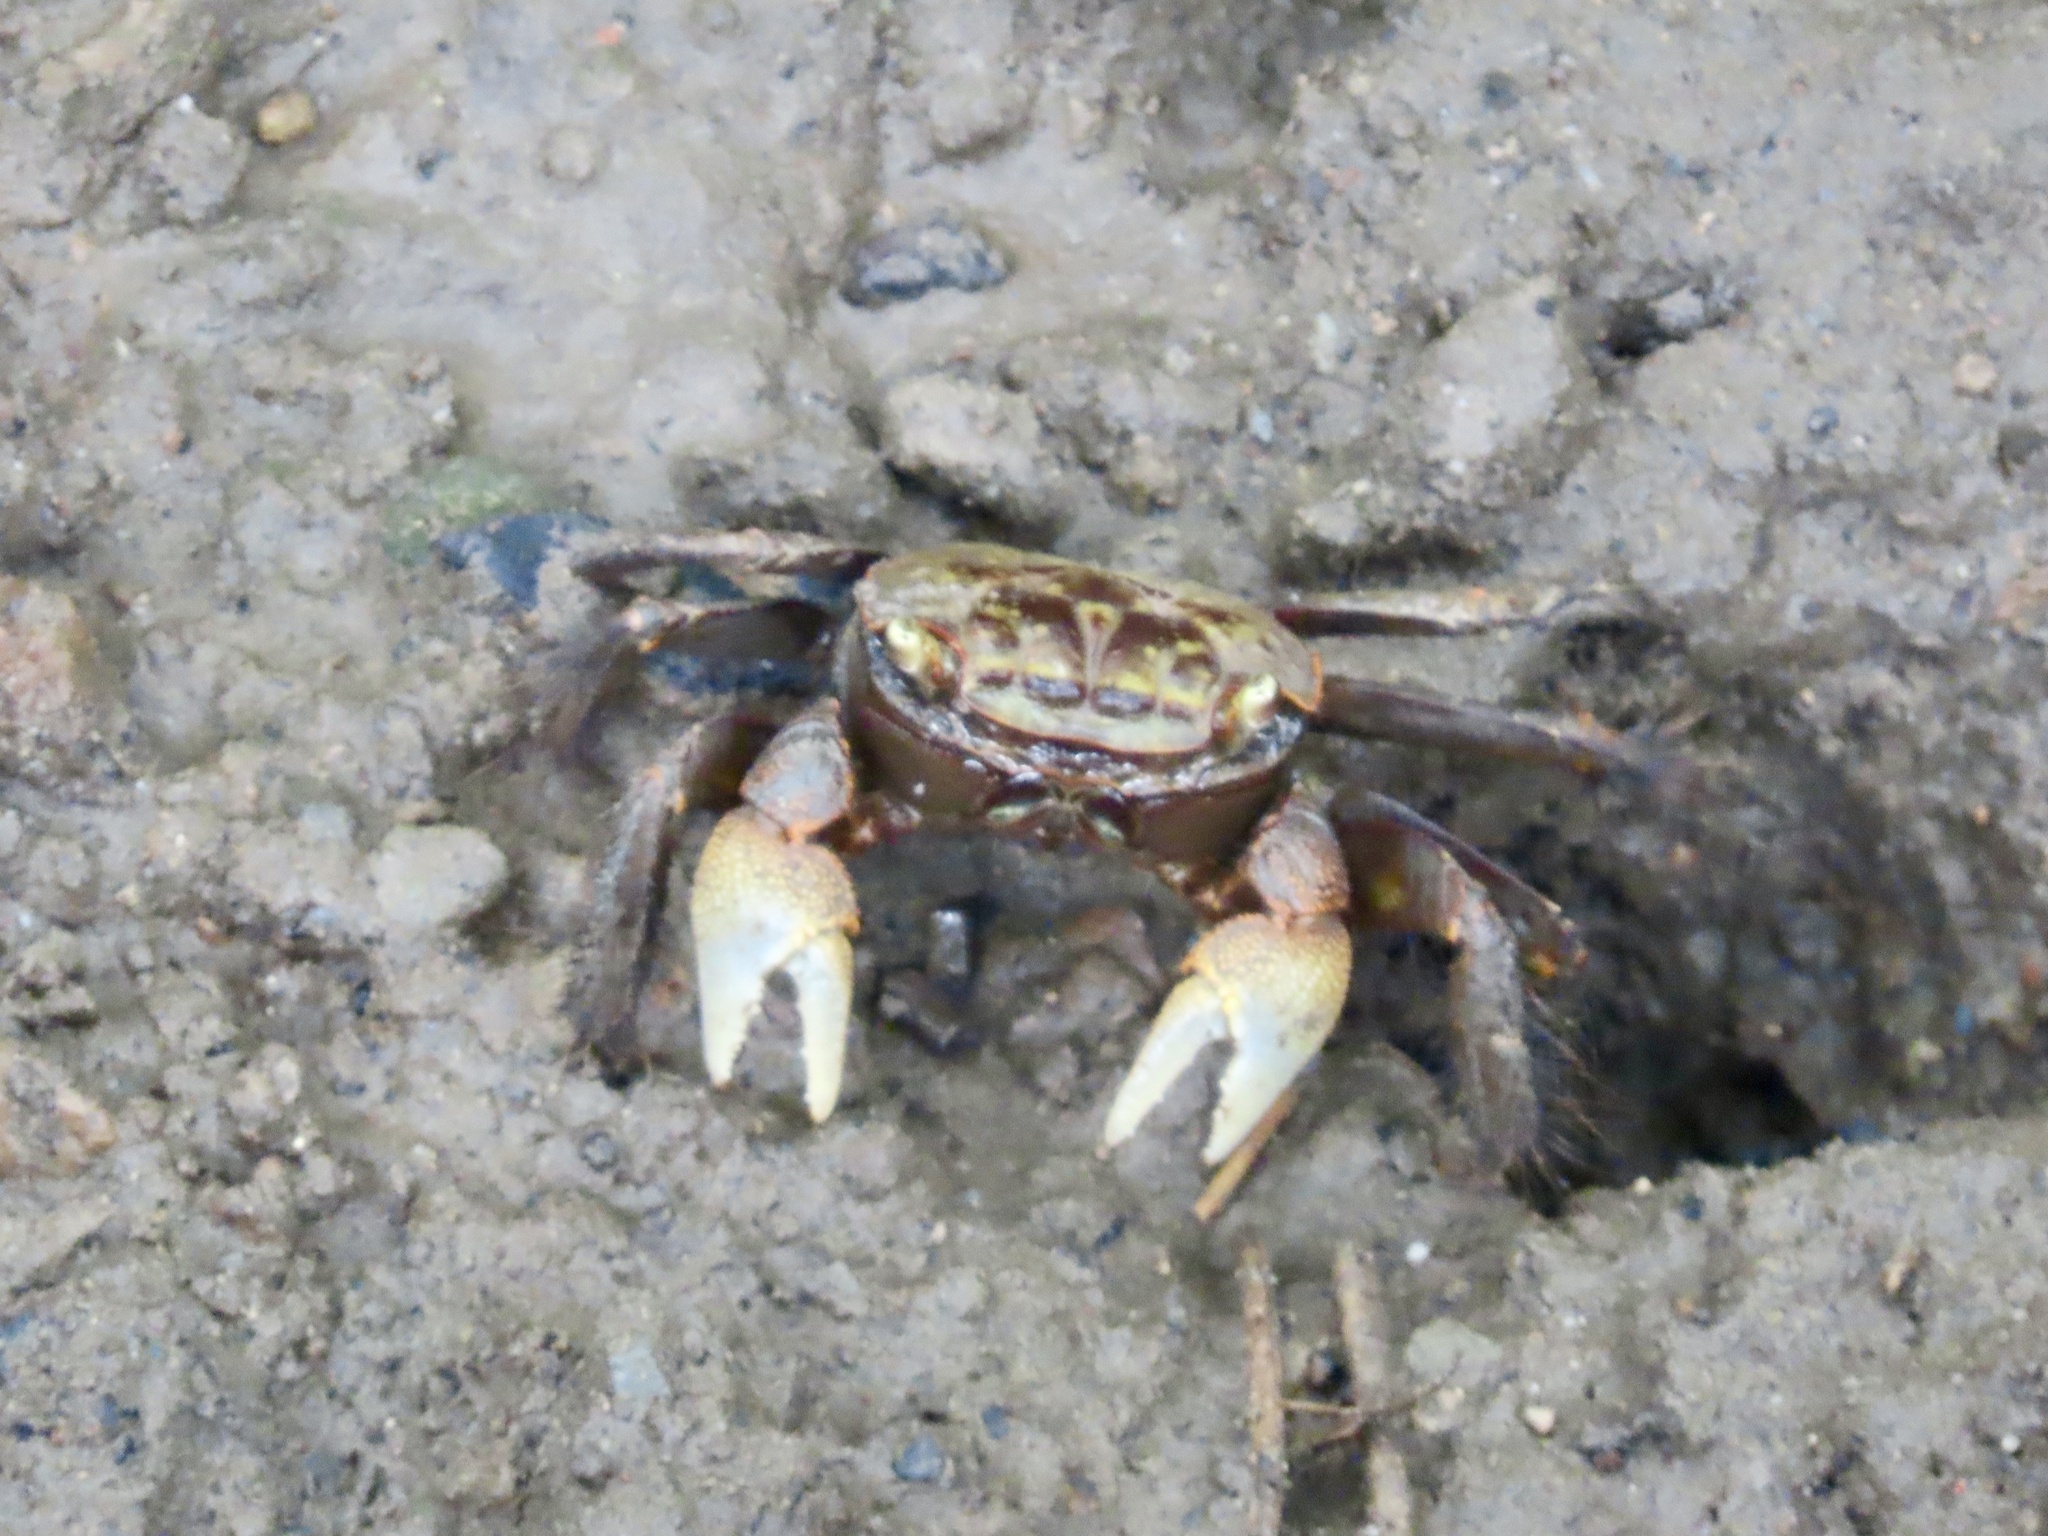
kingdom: Animalia
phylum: Arthropoda
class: Malacostraca
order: Decapoda
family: Sesarmidae
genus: Orisarma
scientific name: Orisarma dehaani
